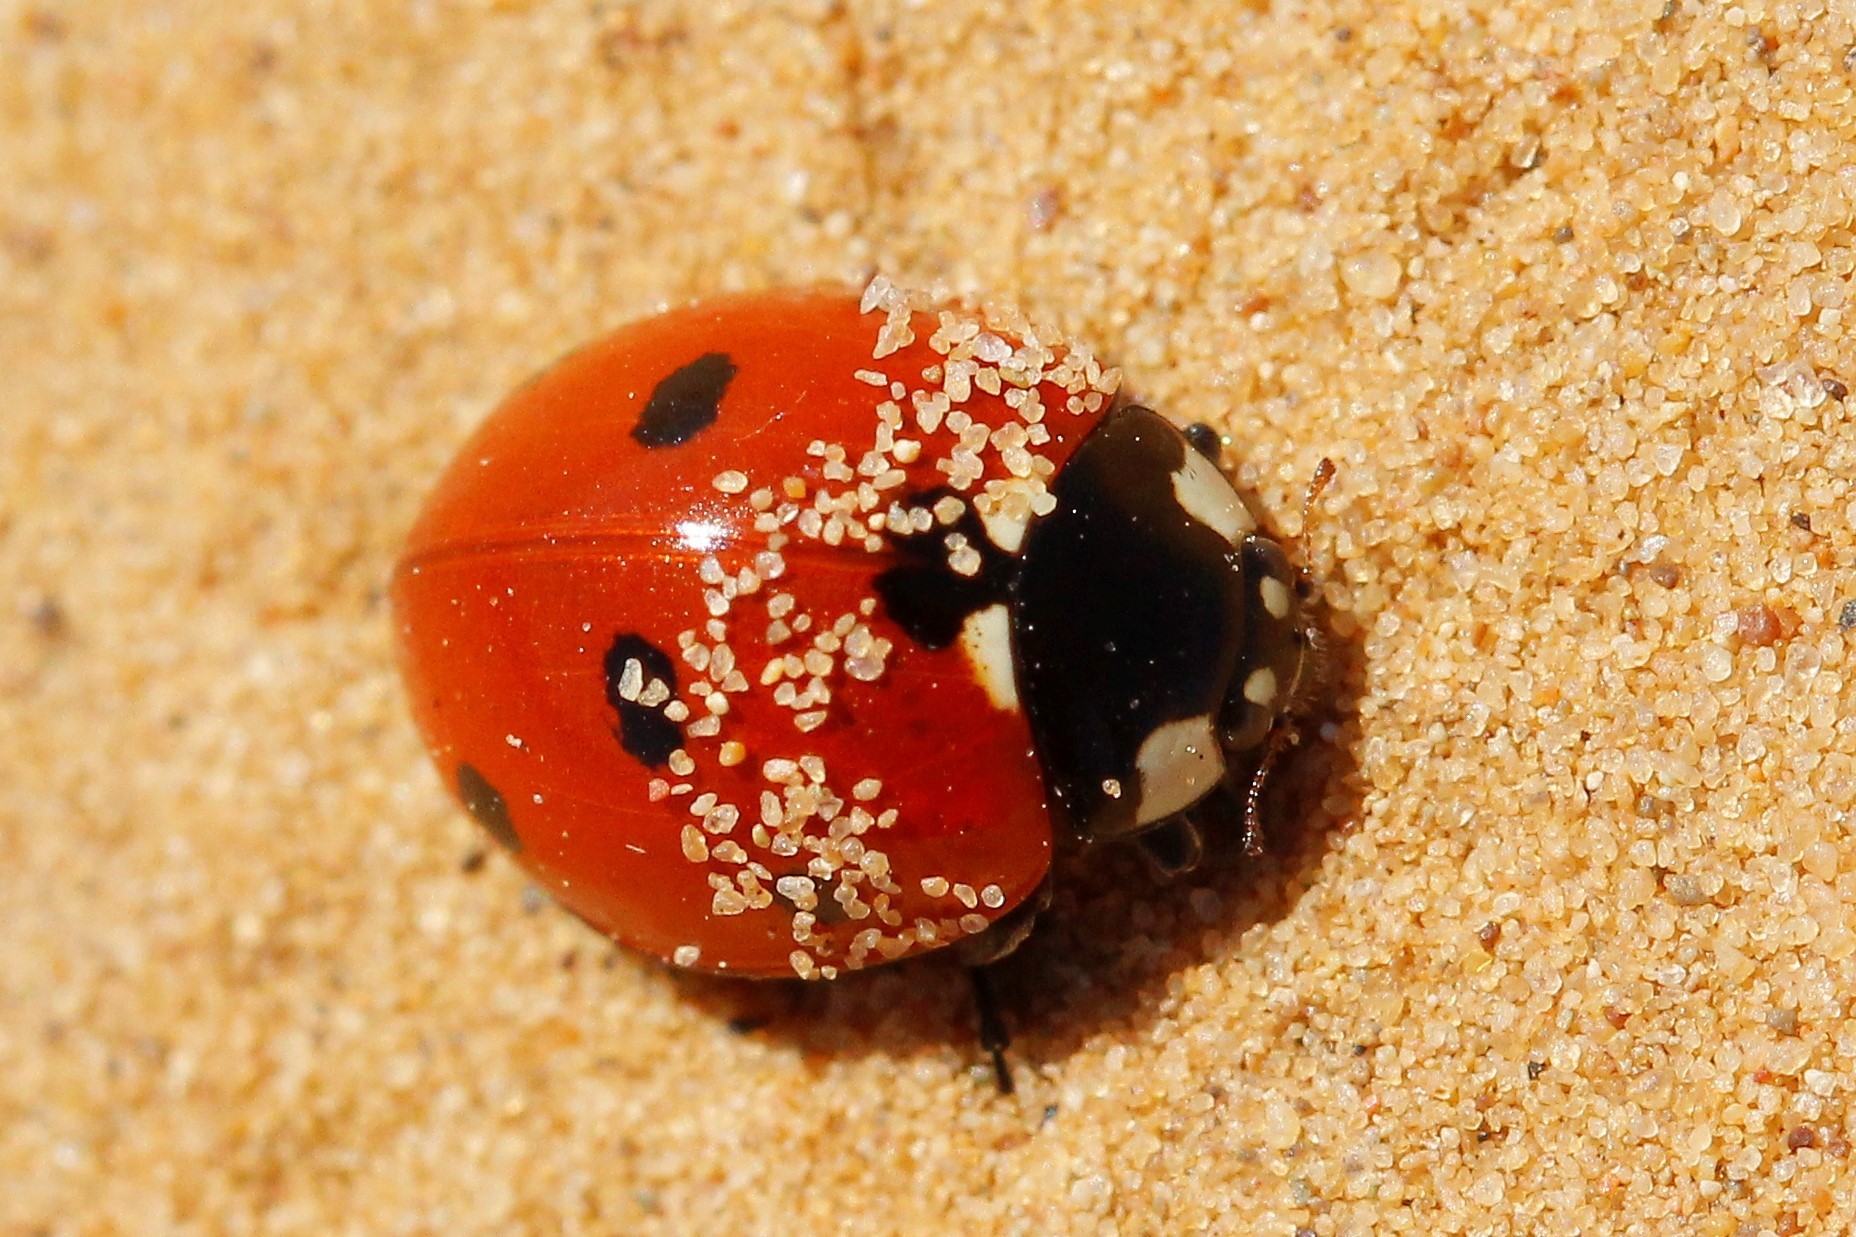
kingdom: Animalia
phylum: Arthropoda
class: Insecta
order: Coleoptera
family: Coccinellidae
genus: Coccinella
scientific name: Coccinella septempunctata
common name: Sevenspotted lady beetle
